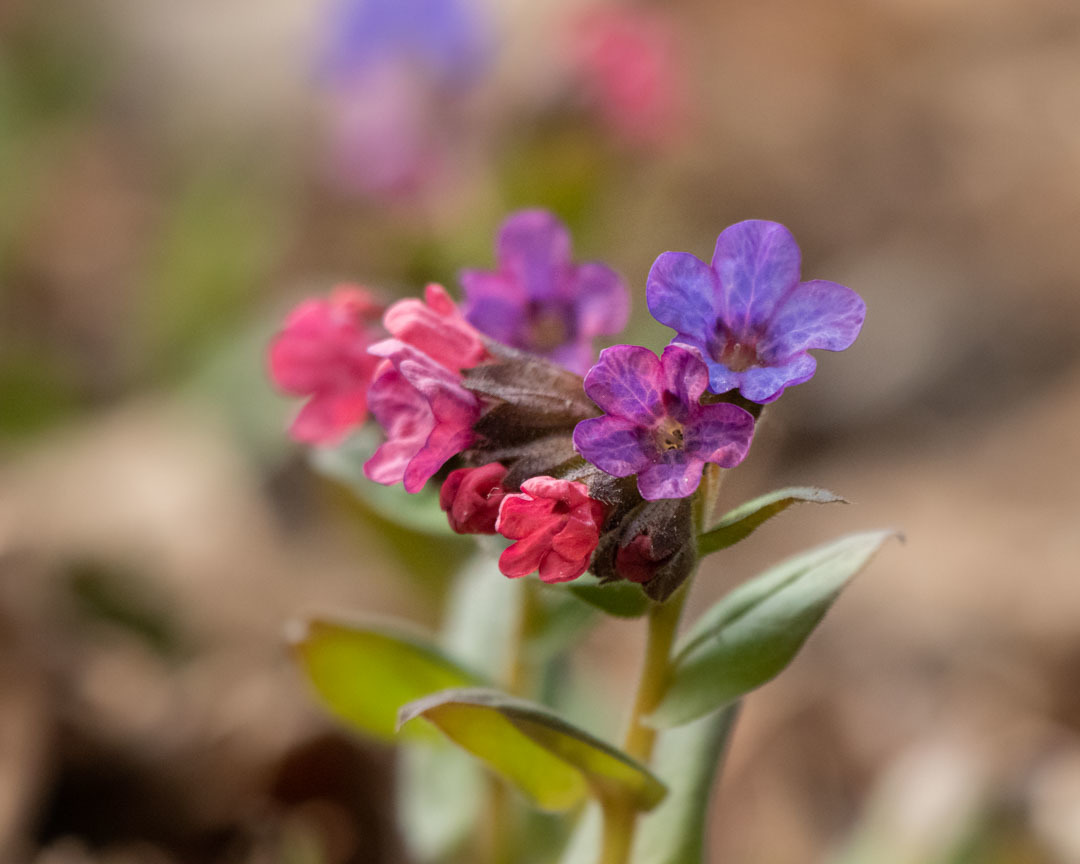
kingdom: Plantae
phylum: Tracheophyta
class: Magnoliopsida
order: Boraginales
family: Boraginaceae
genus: Pulmonaria
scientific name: Pulmonaria obscura
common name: Suffolk lungwort
